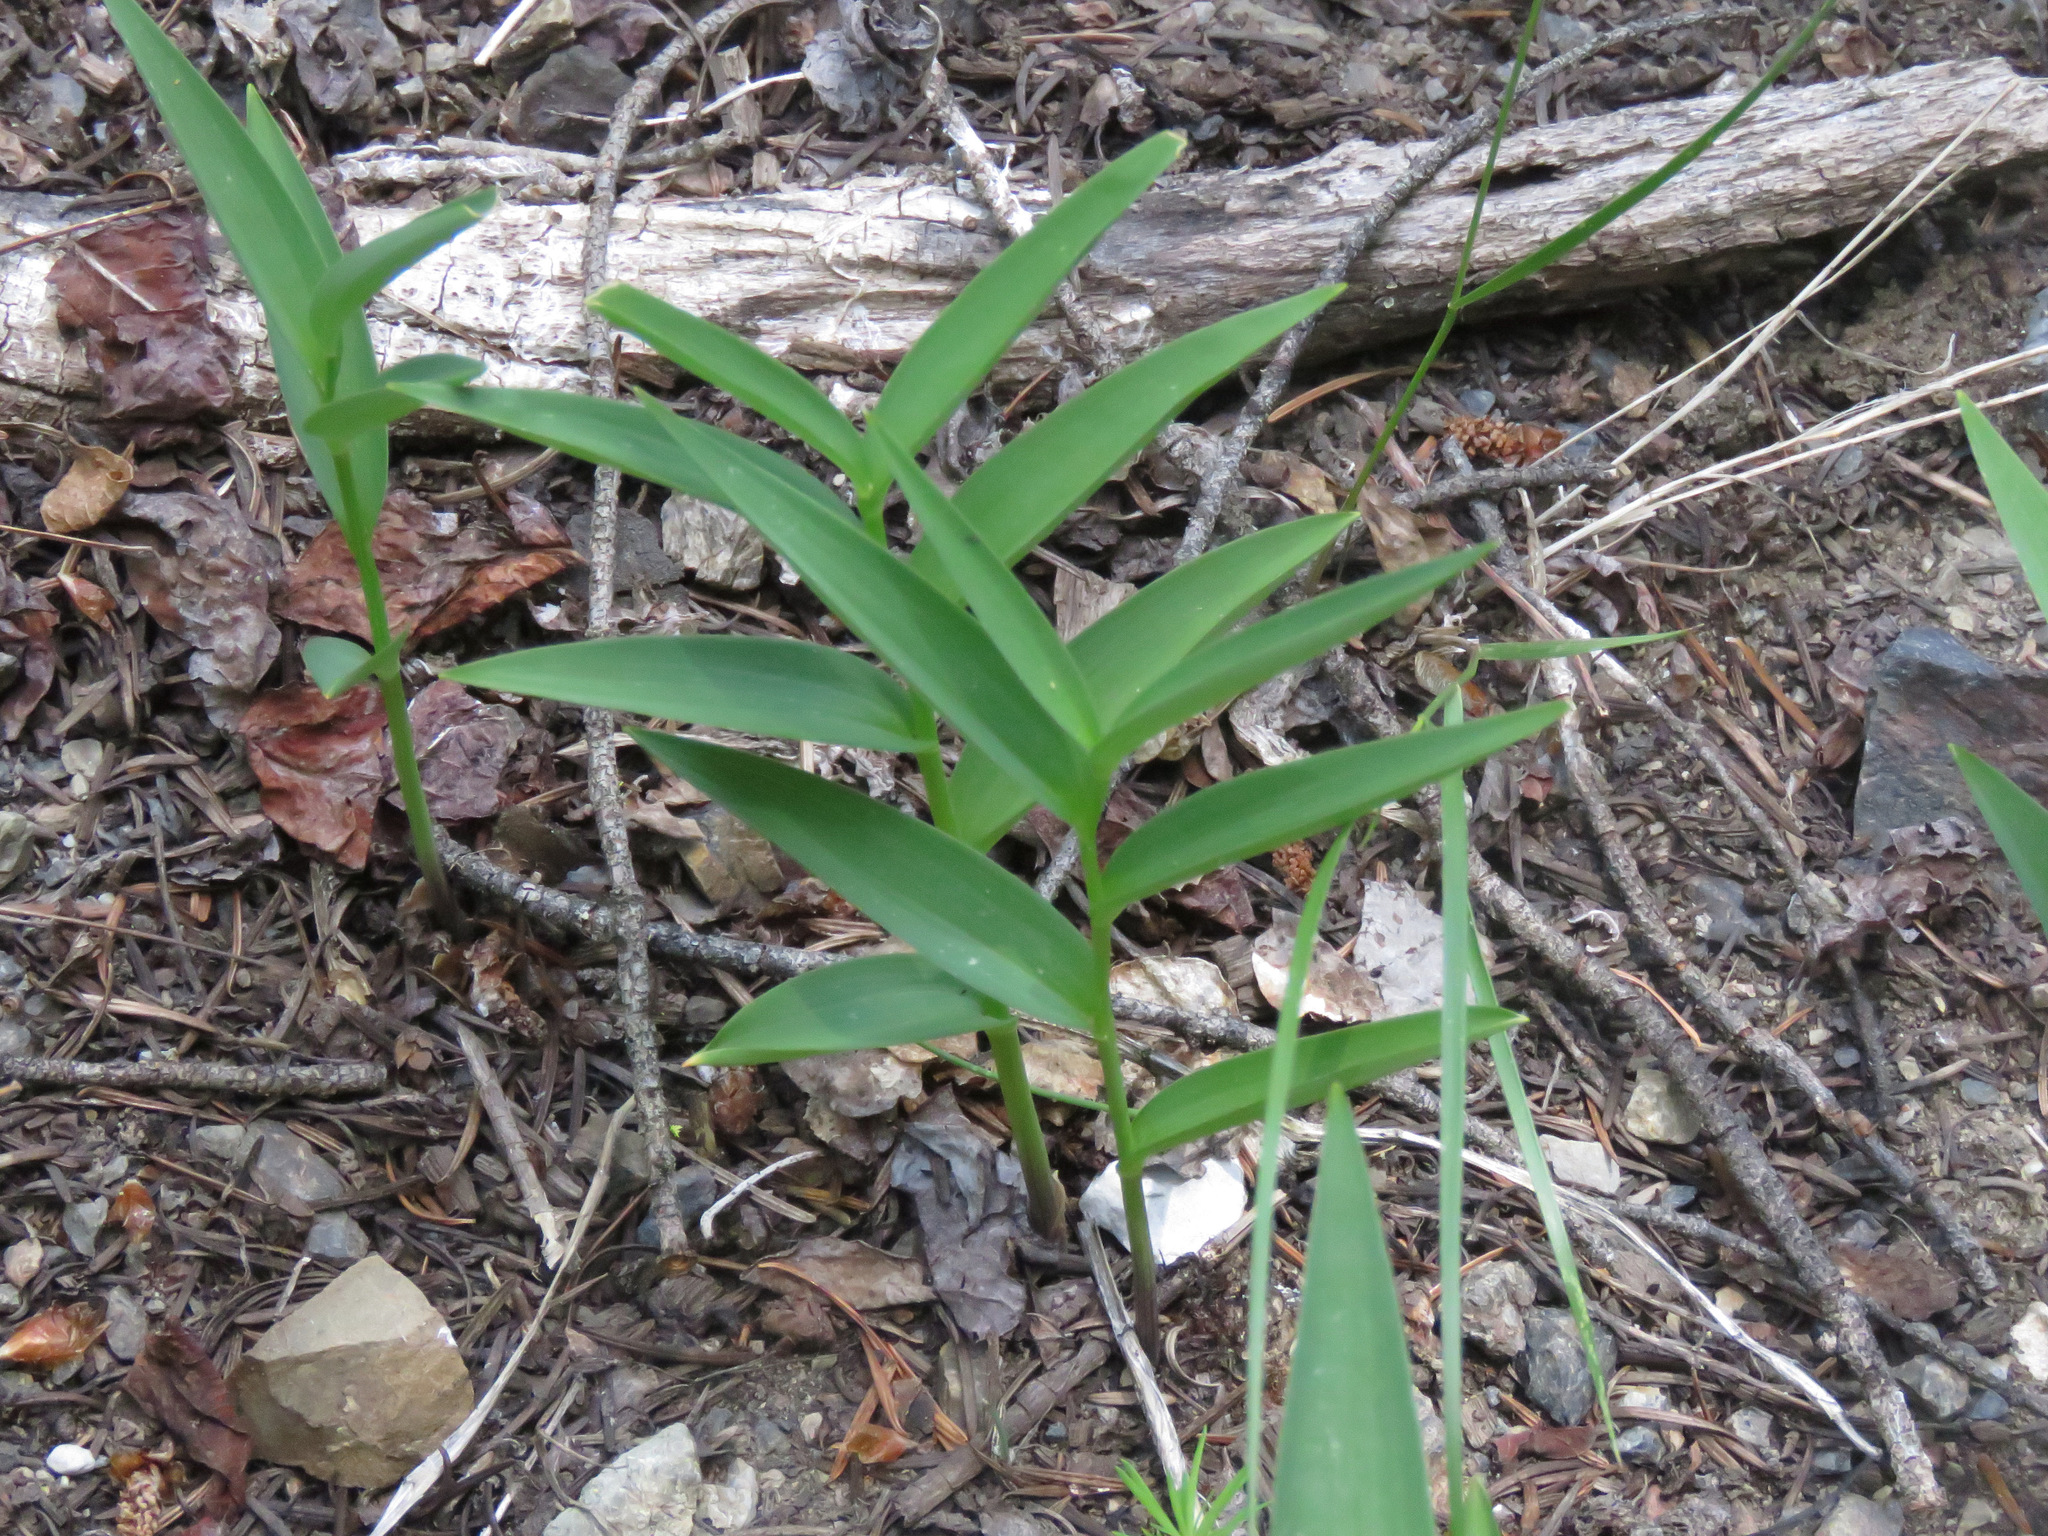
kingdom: Plantae
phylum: Tracheophyta
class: Liliopsida
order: Asparagales
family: Asparagaceae
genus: Maianthemum
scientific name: Maianthemum stellatum
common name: Little false solomon's seal
